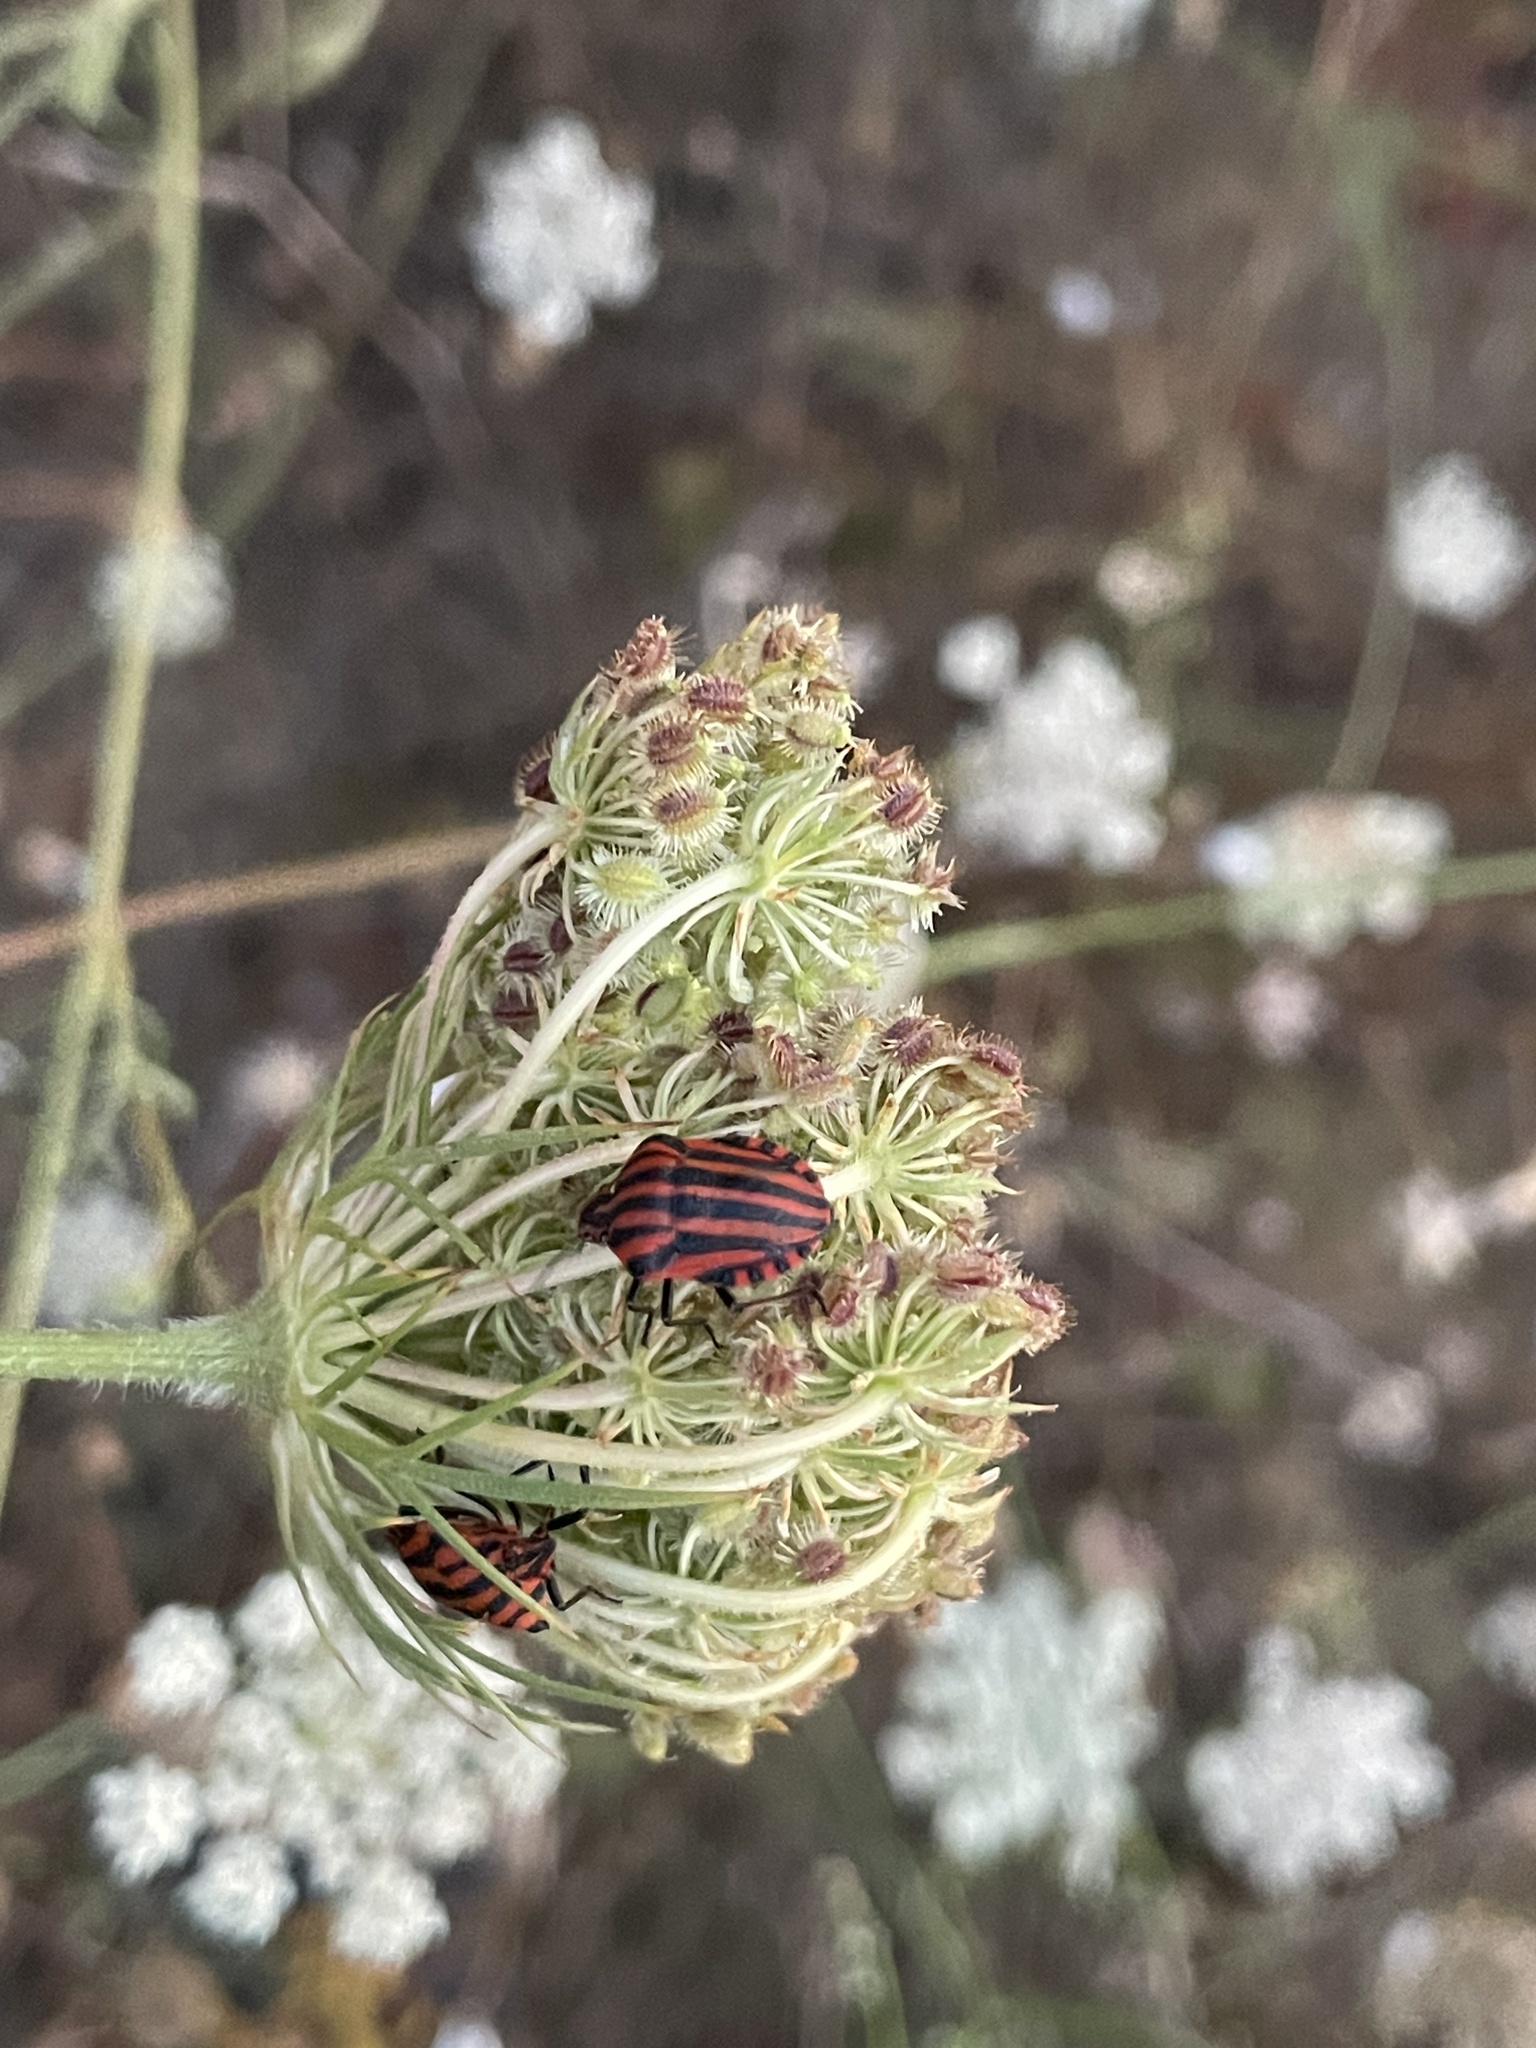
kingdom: Animalia
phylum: Arthropoda
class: Insecta
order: Hemiptera
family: Pentatomidae
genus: Graphosoma
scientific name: Graphosoma italicum
